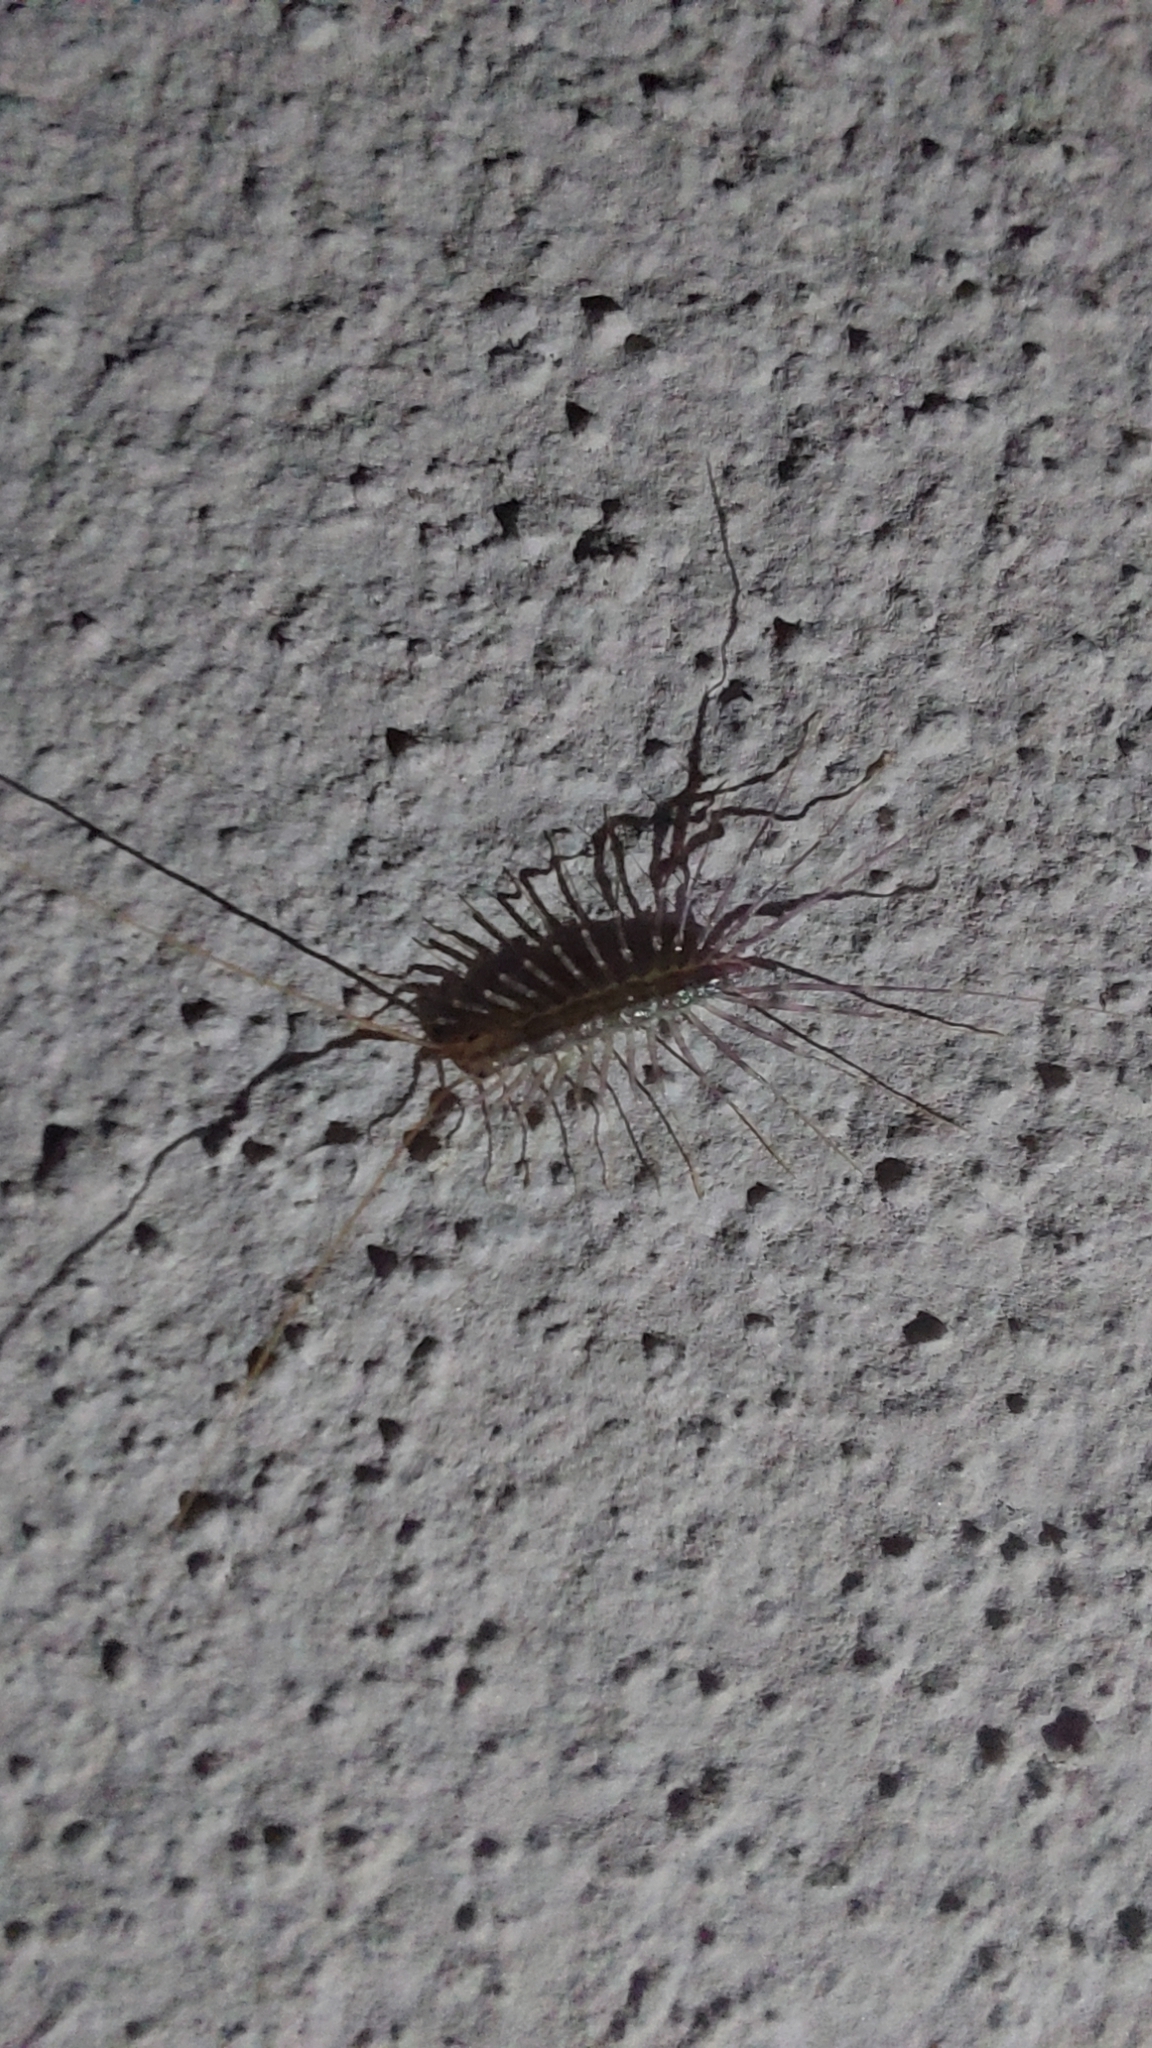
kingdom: Animalia
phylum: Arthropoda
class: Chilopoda
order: Scutigeromorpha
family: Scutigeridae
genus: Scutigera
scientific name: Scutigera coleoptrata
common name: House centipede
